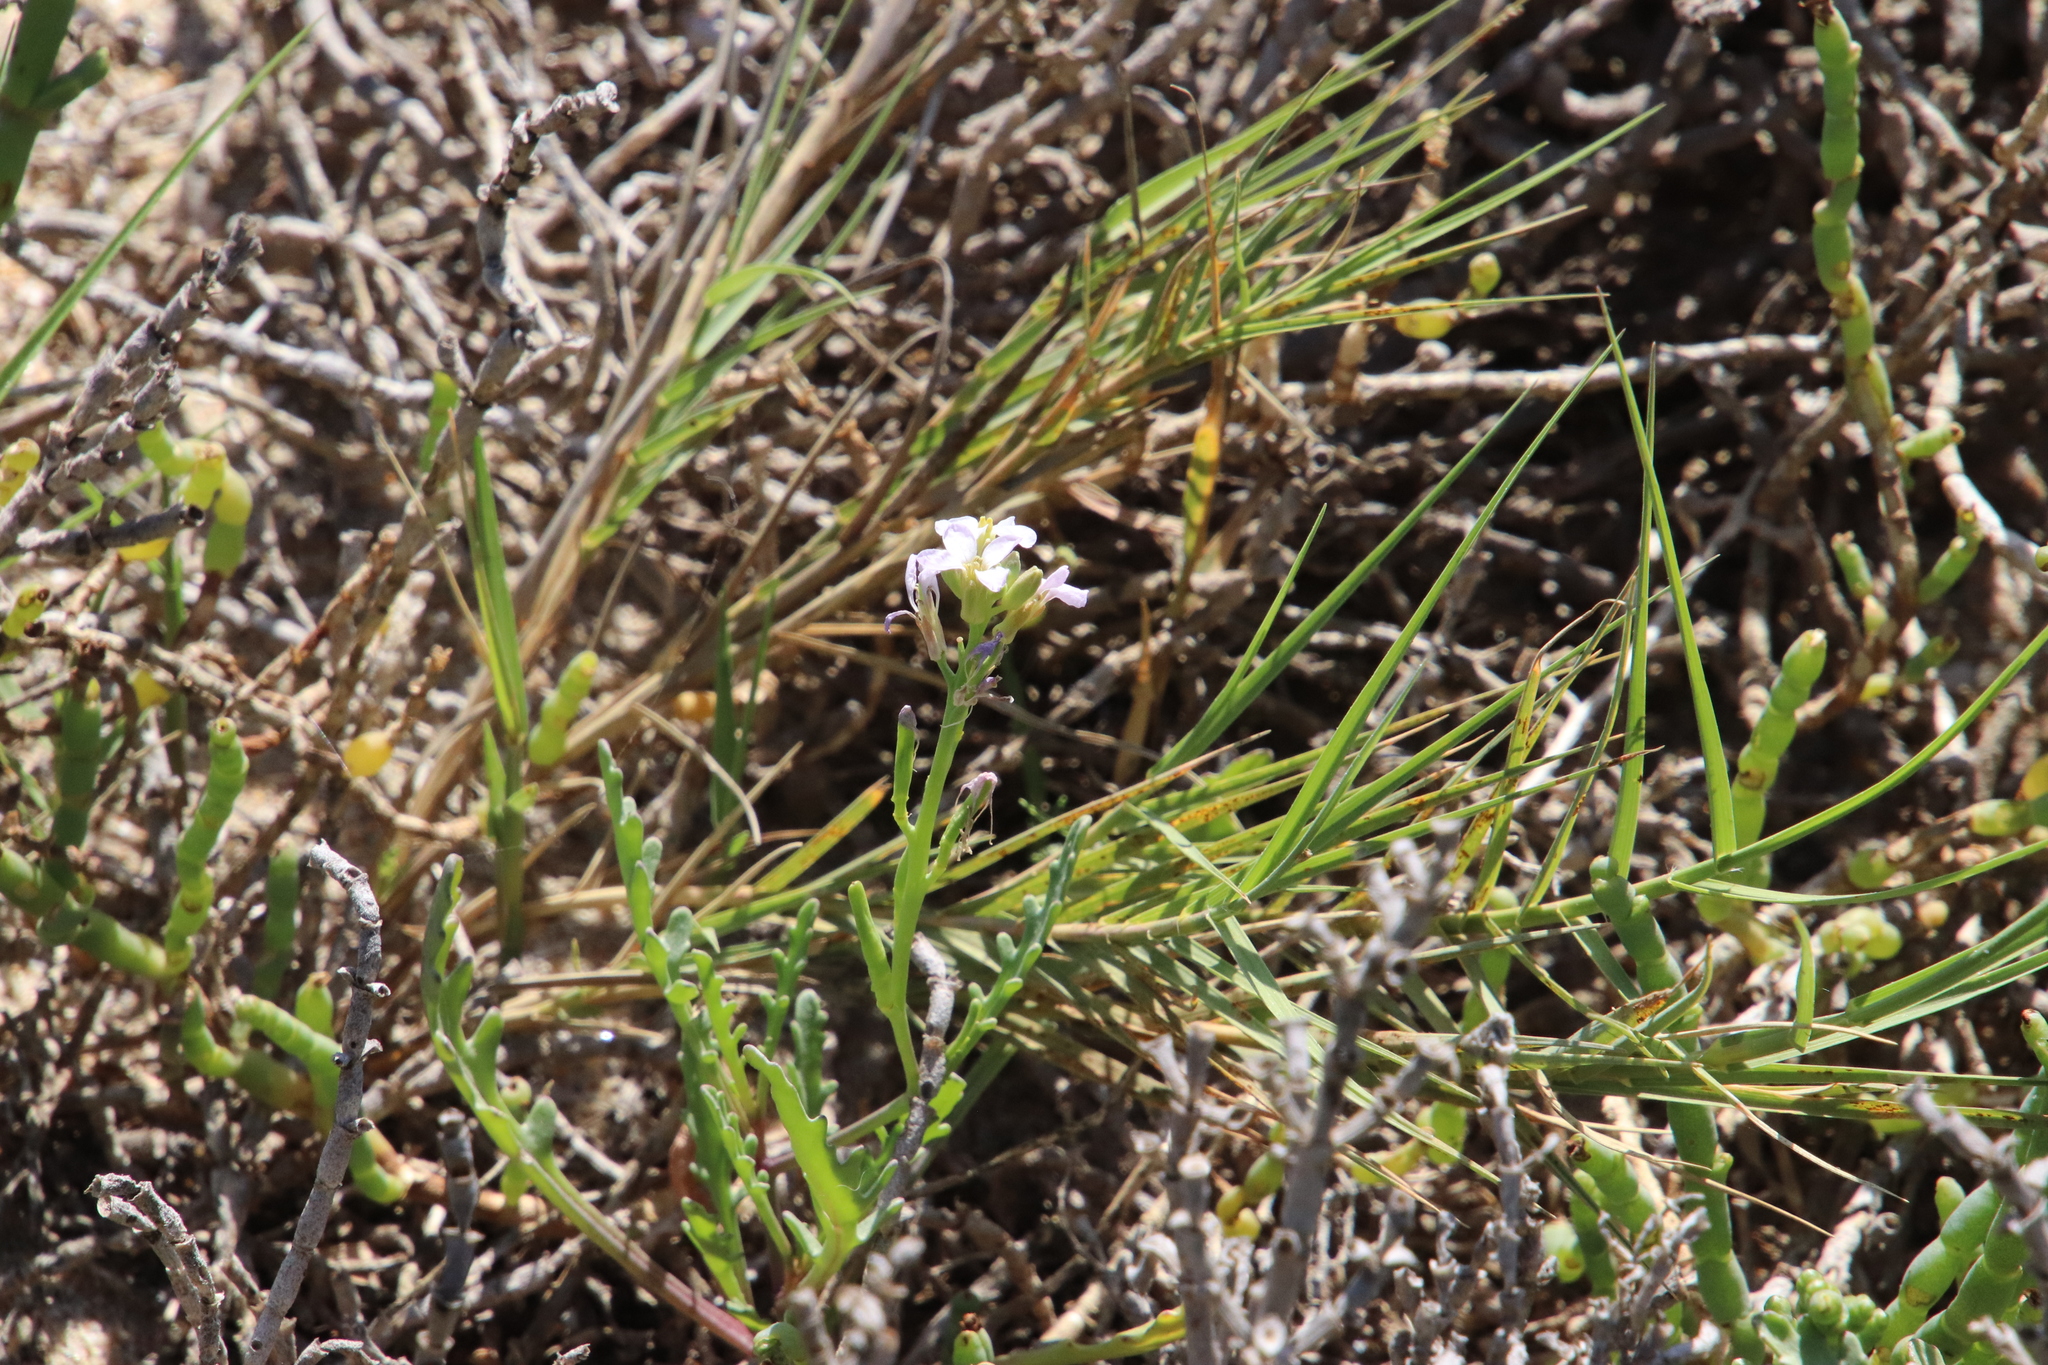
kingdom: Plantae
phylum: Tracheophyta
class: Magnoliopsida
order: Brassicales
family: Brassicaceae
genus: Cakile
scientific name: Cakile maritima
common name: Sea rocket
